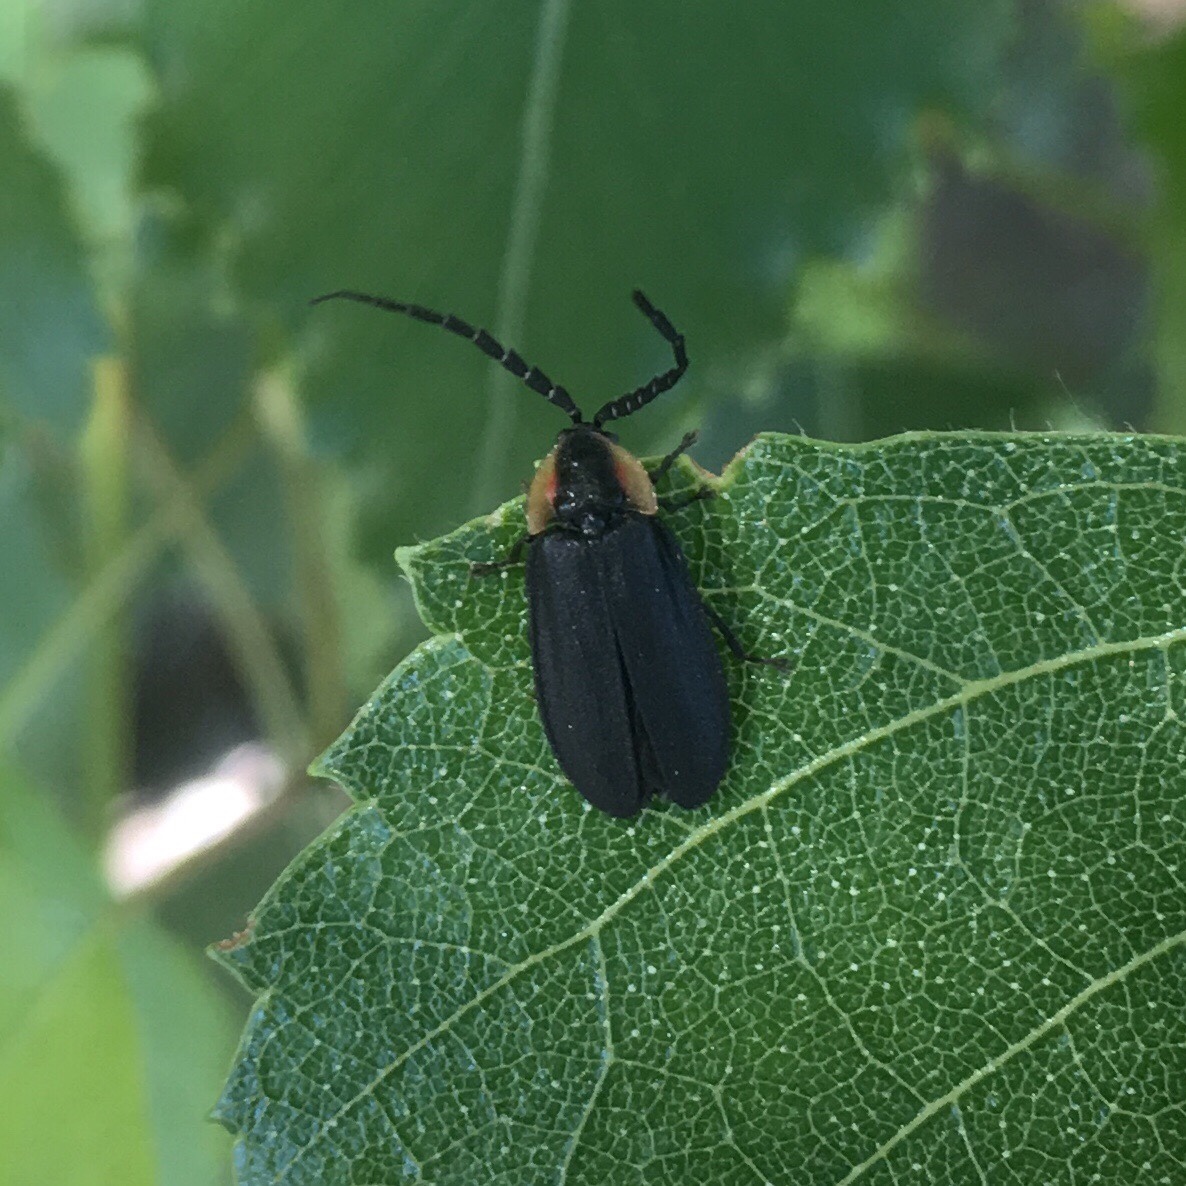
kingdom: Animalia
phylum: Arthropoda
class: Insecta
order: Coleoptera
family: Lampyridae
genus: Lucidota
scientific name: Lucidota atra
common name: Black firefly
